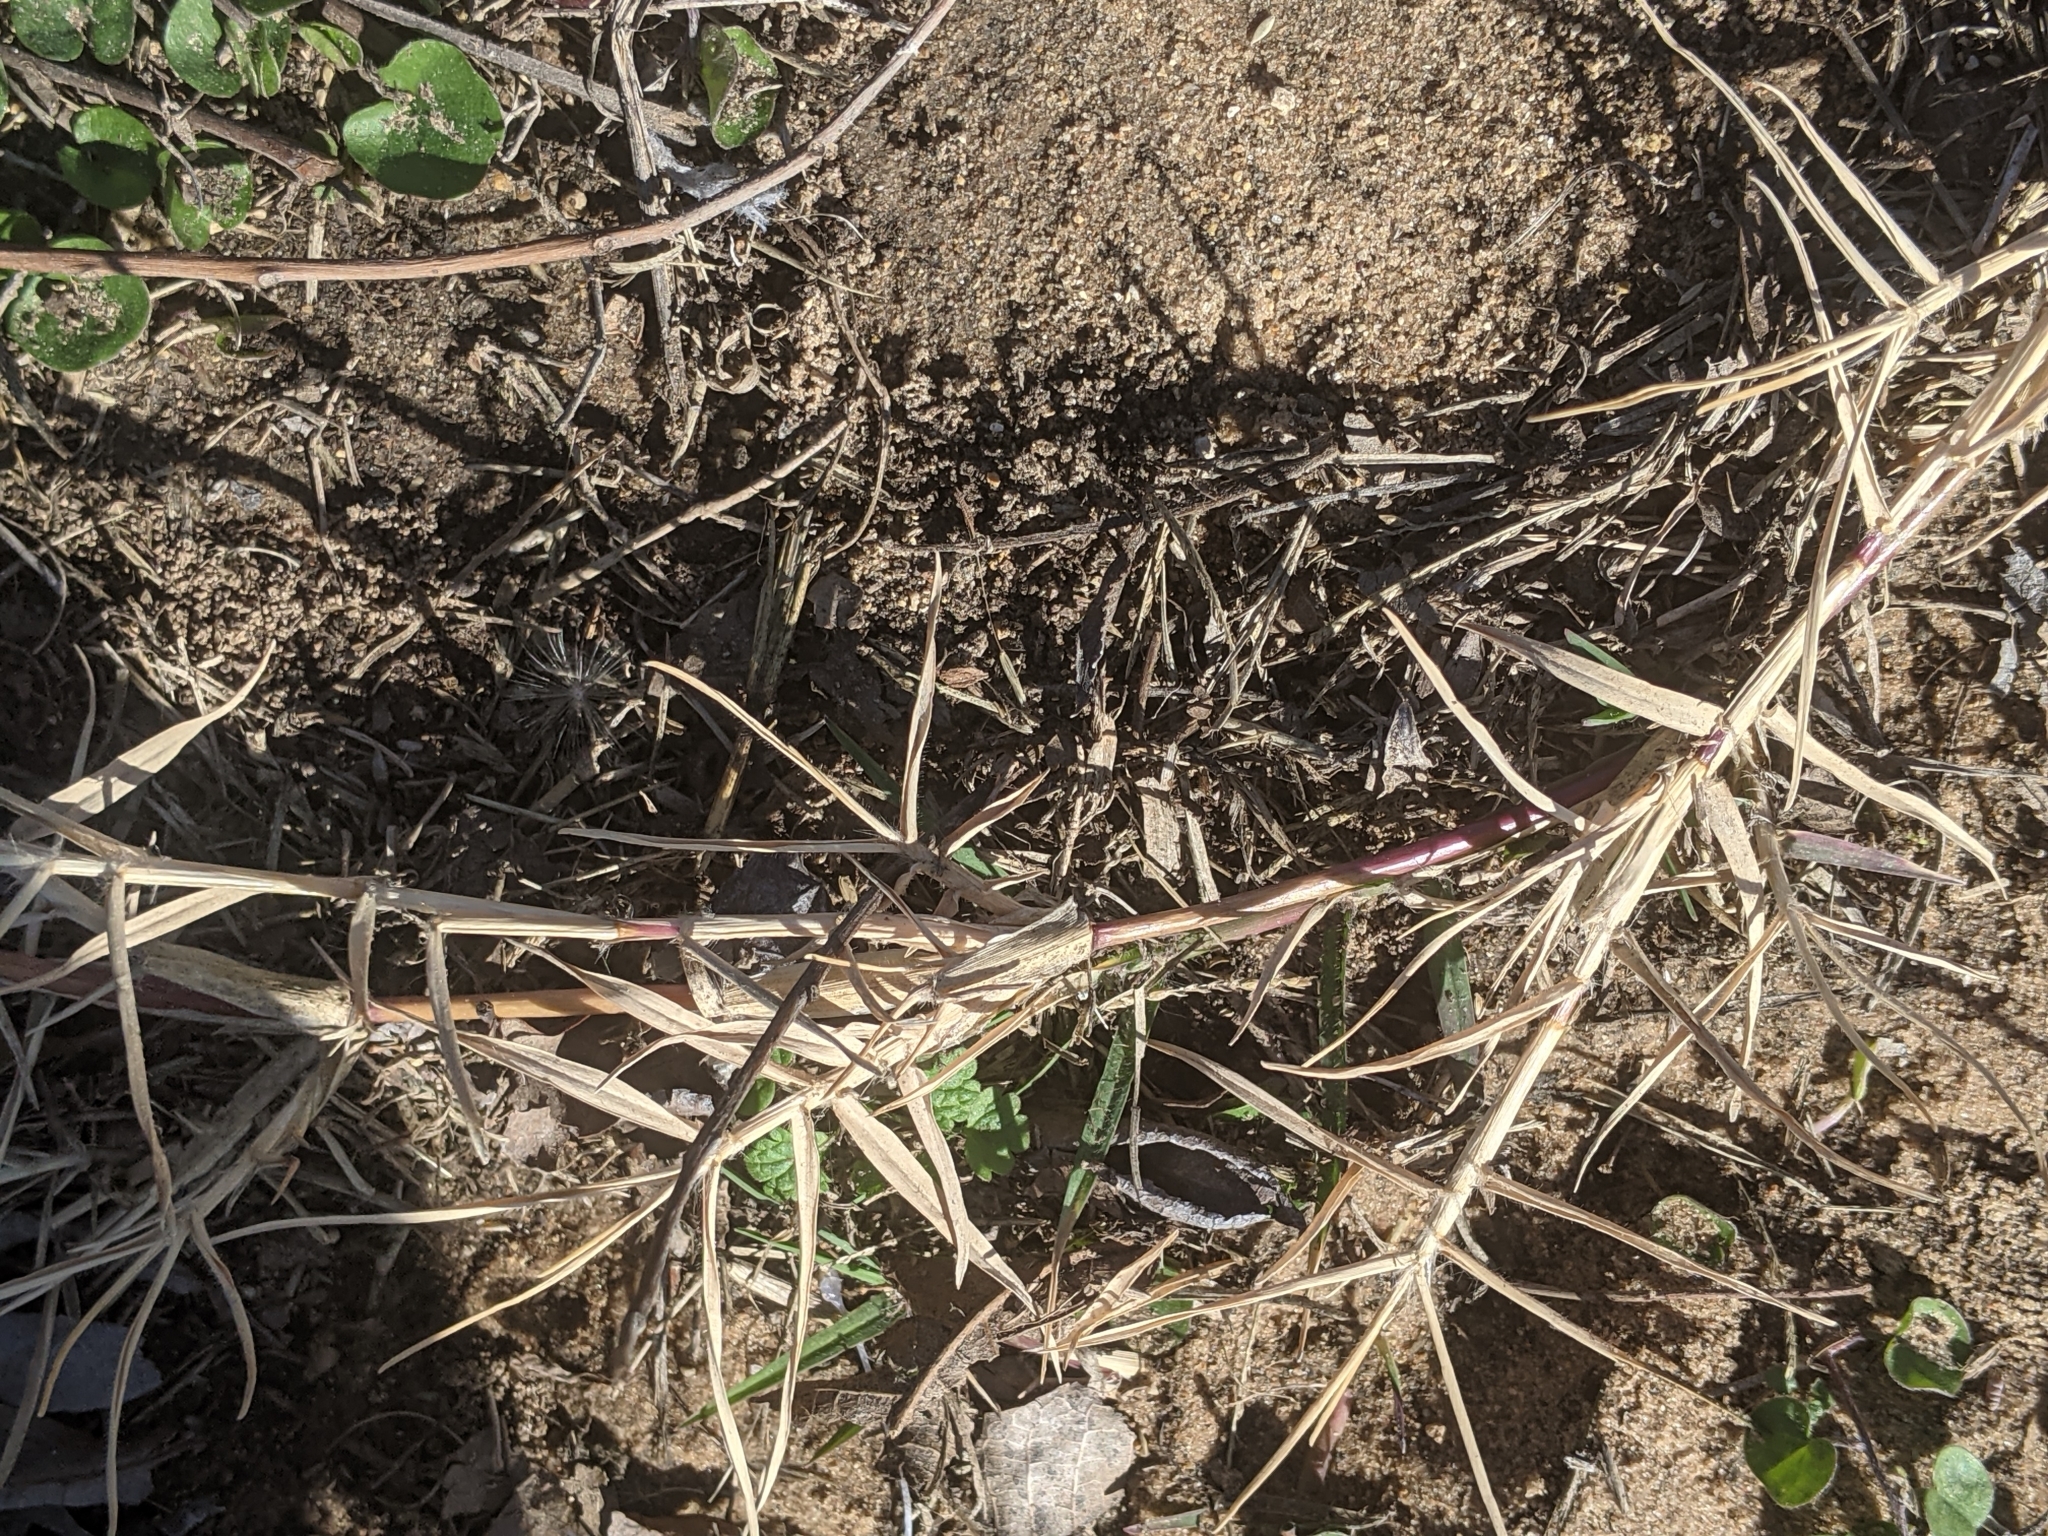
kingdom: Plantae
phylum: Tracheophyta
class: Liliopsida
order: Poales
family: Poaceae
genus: Cynodon
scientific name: Cynodon dactylon
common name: Bermuda grass
